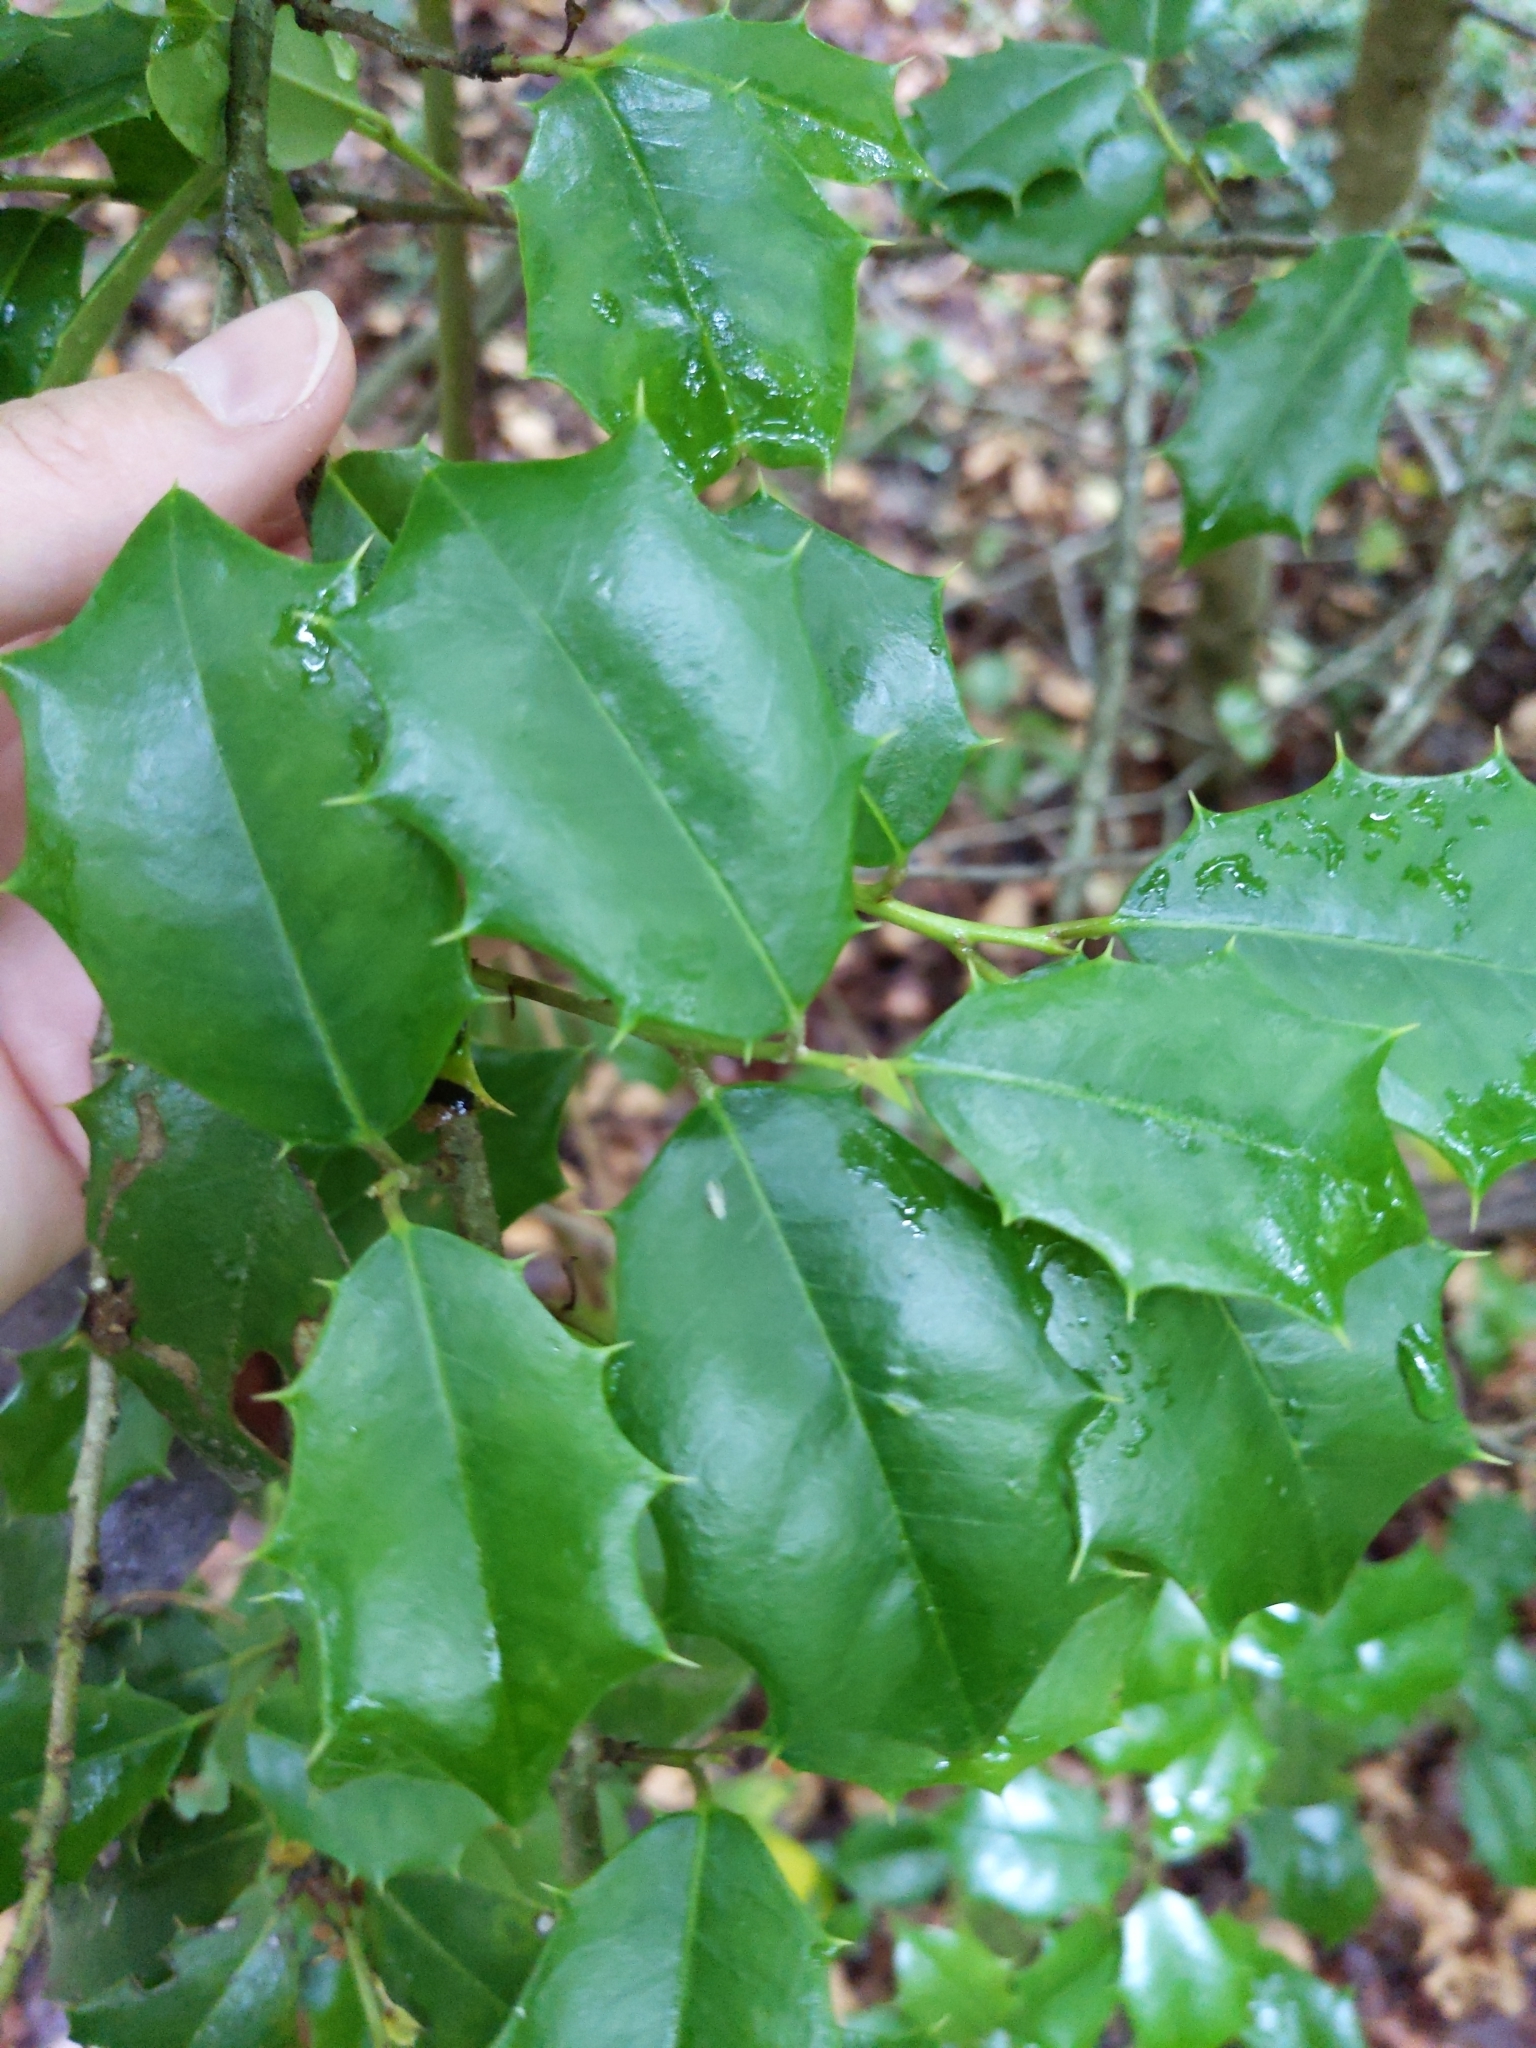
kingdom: Plantae
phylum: Tracheophyta
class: Magnoliopsida
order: Aquifoliales
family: Aquifoliaceae
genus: Ilex
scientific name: Ilex opaca
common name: American holly
